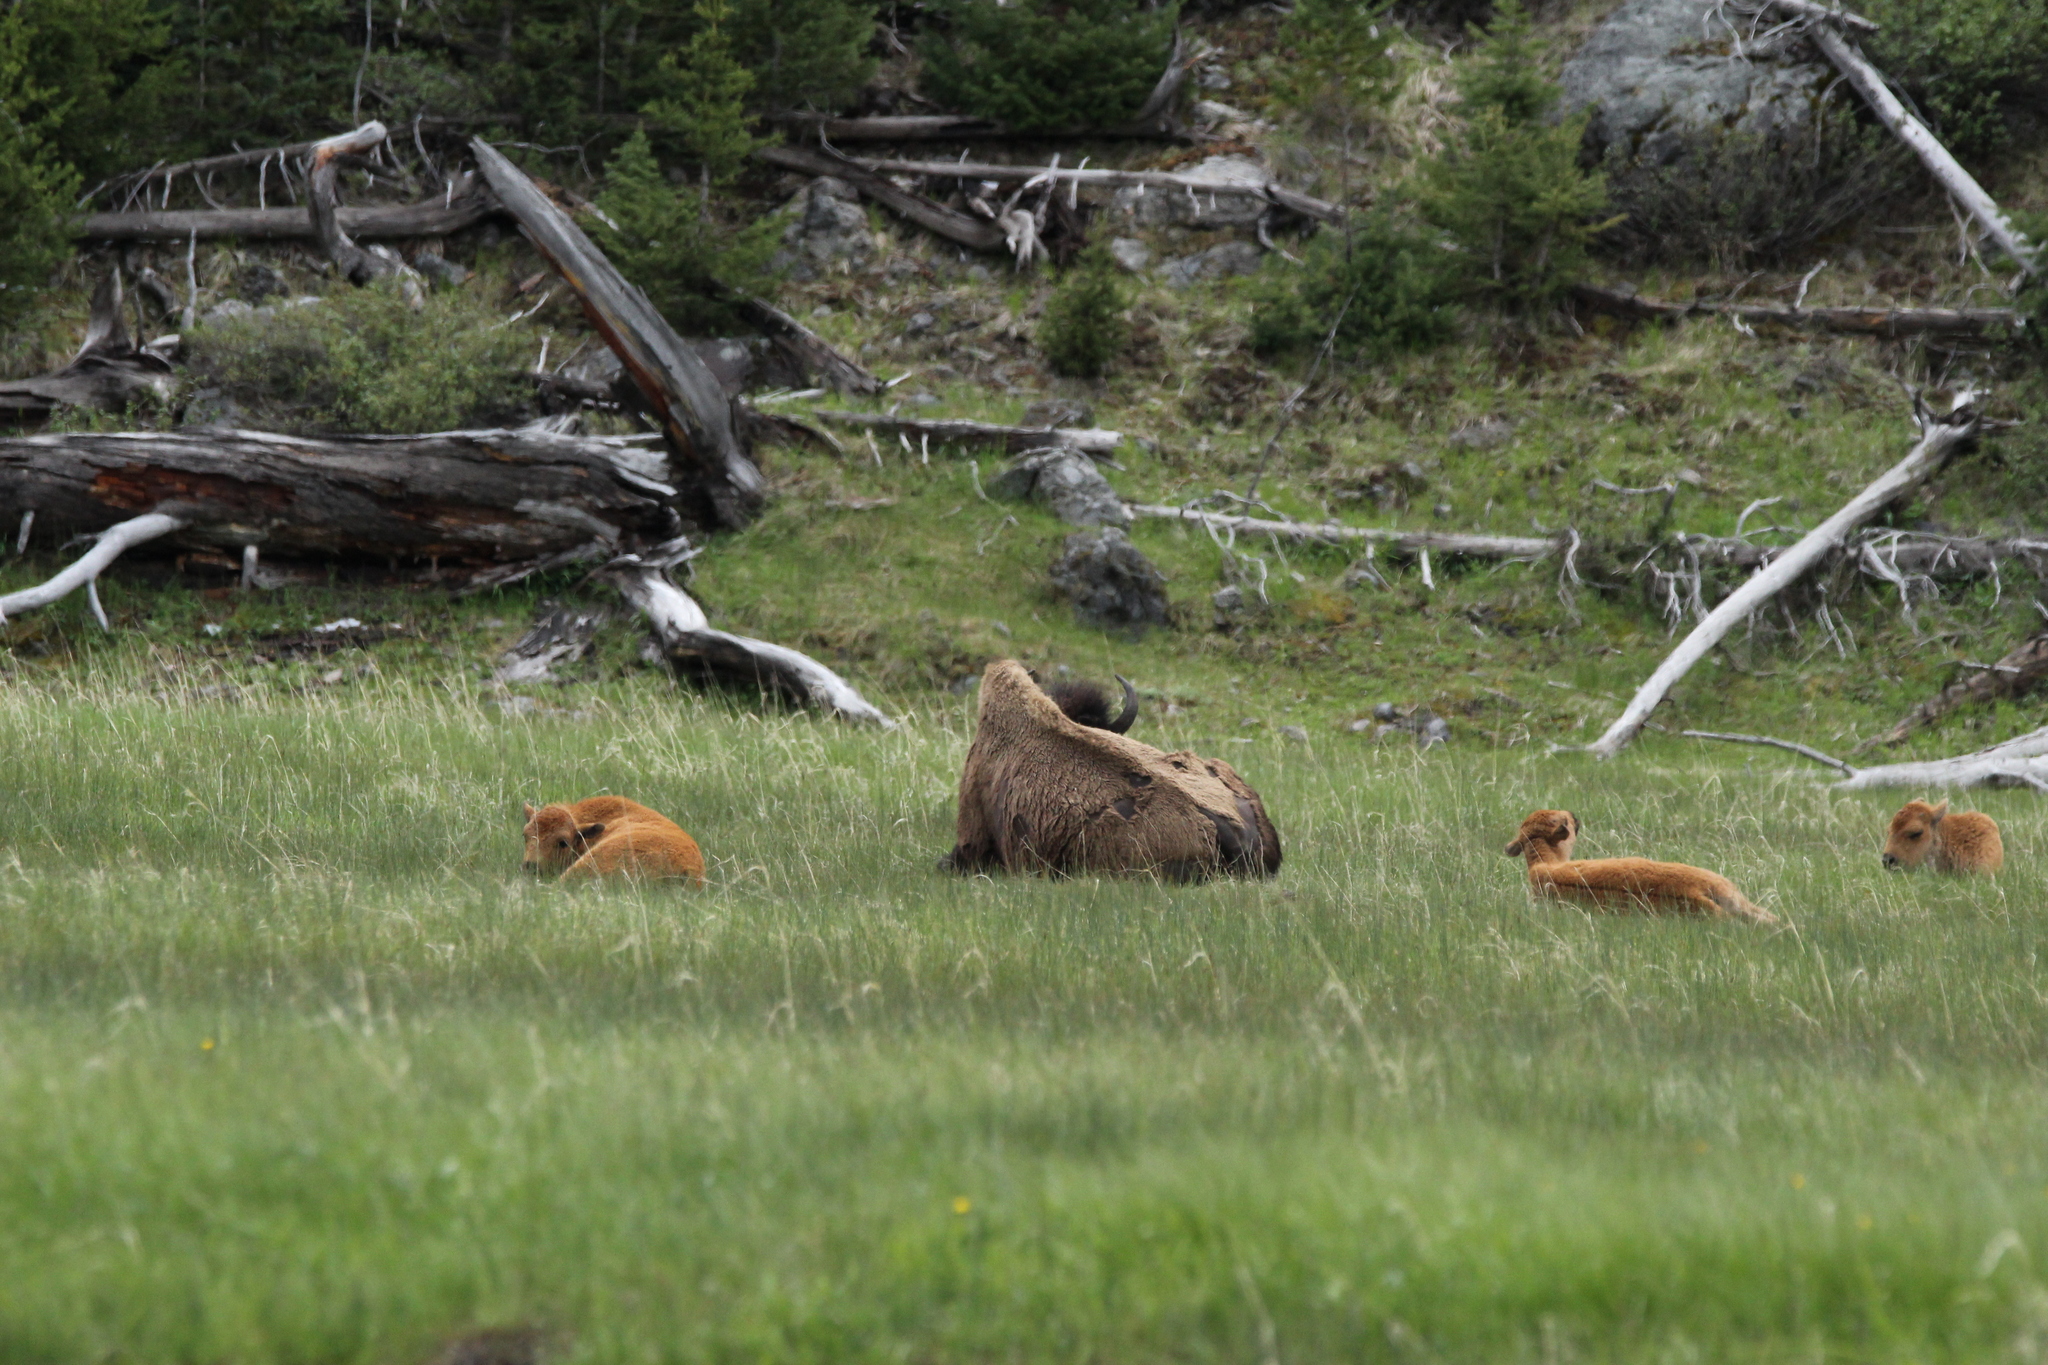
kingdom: Animalia
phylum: Chordata
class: Mammalia
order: Artiodactyla
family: Bovidae
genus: Bison
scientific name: Bison bison
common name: American bison
